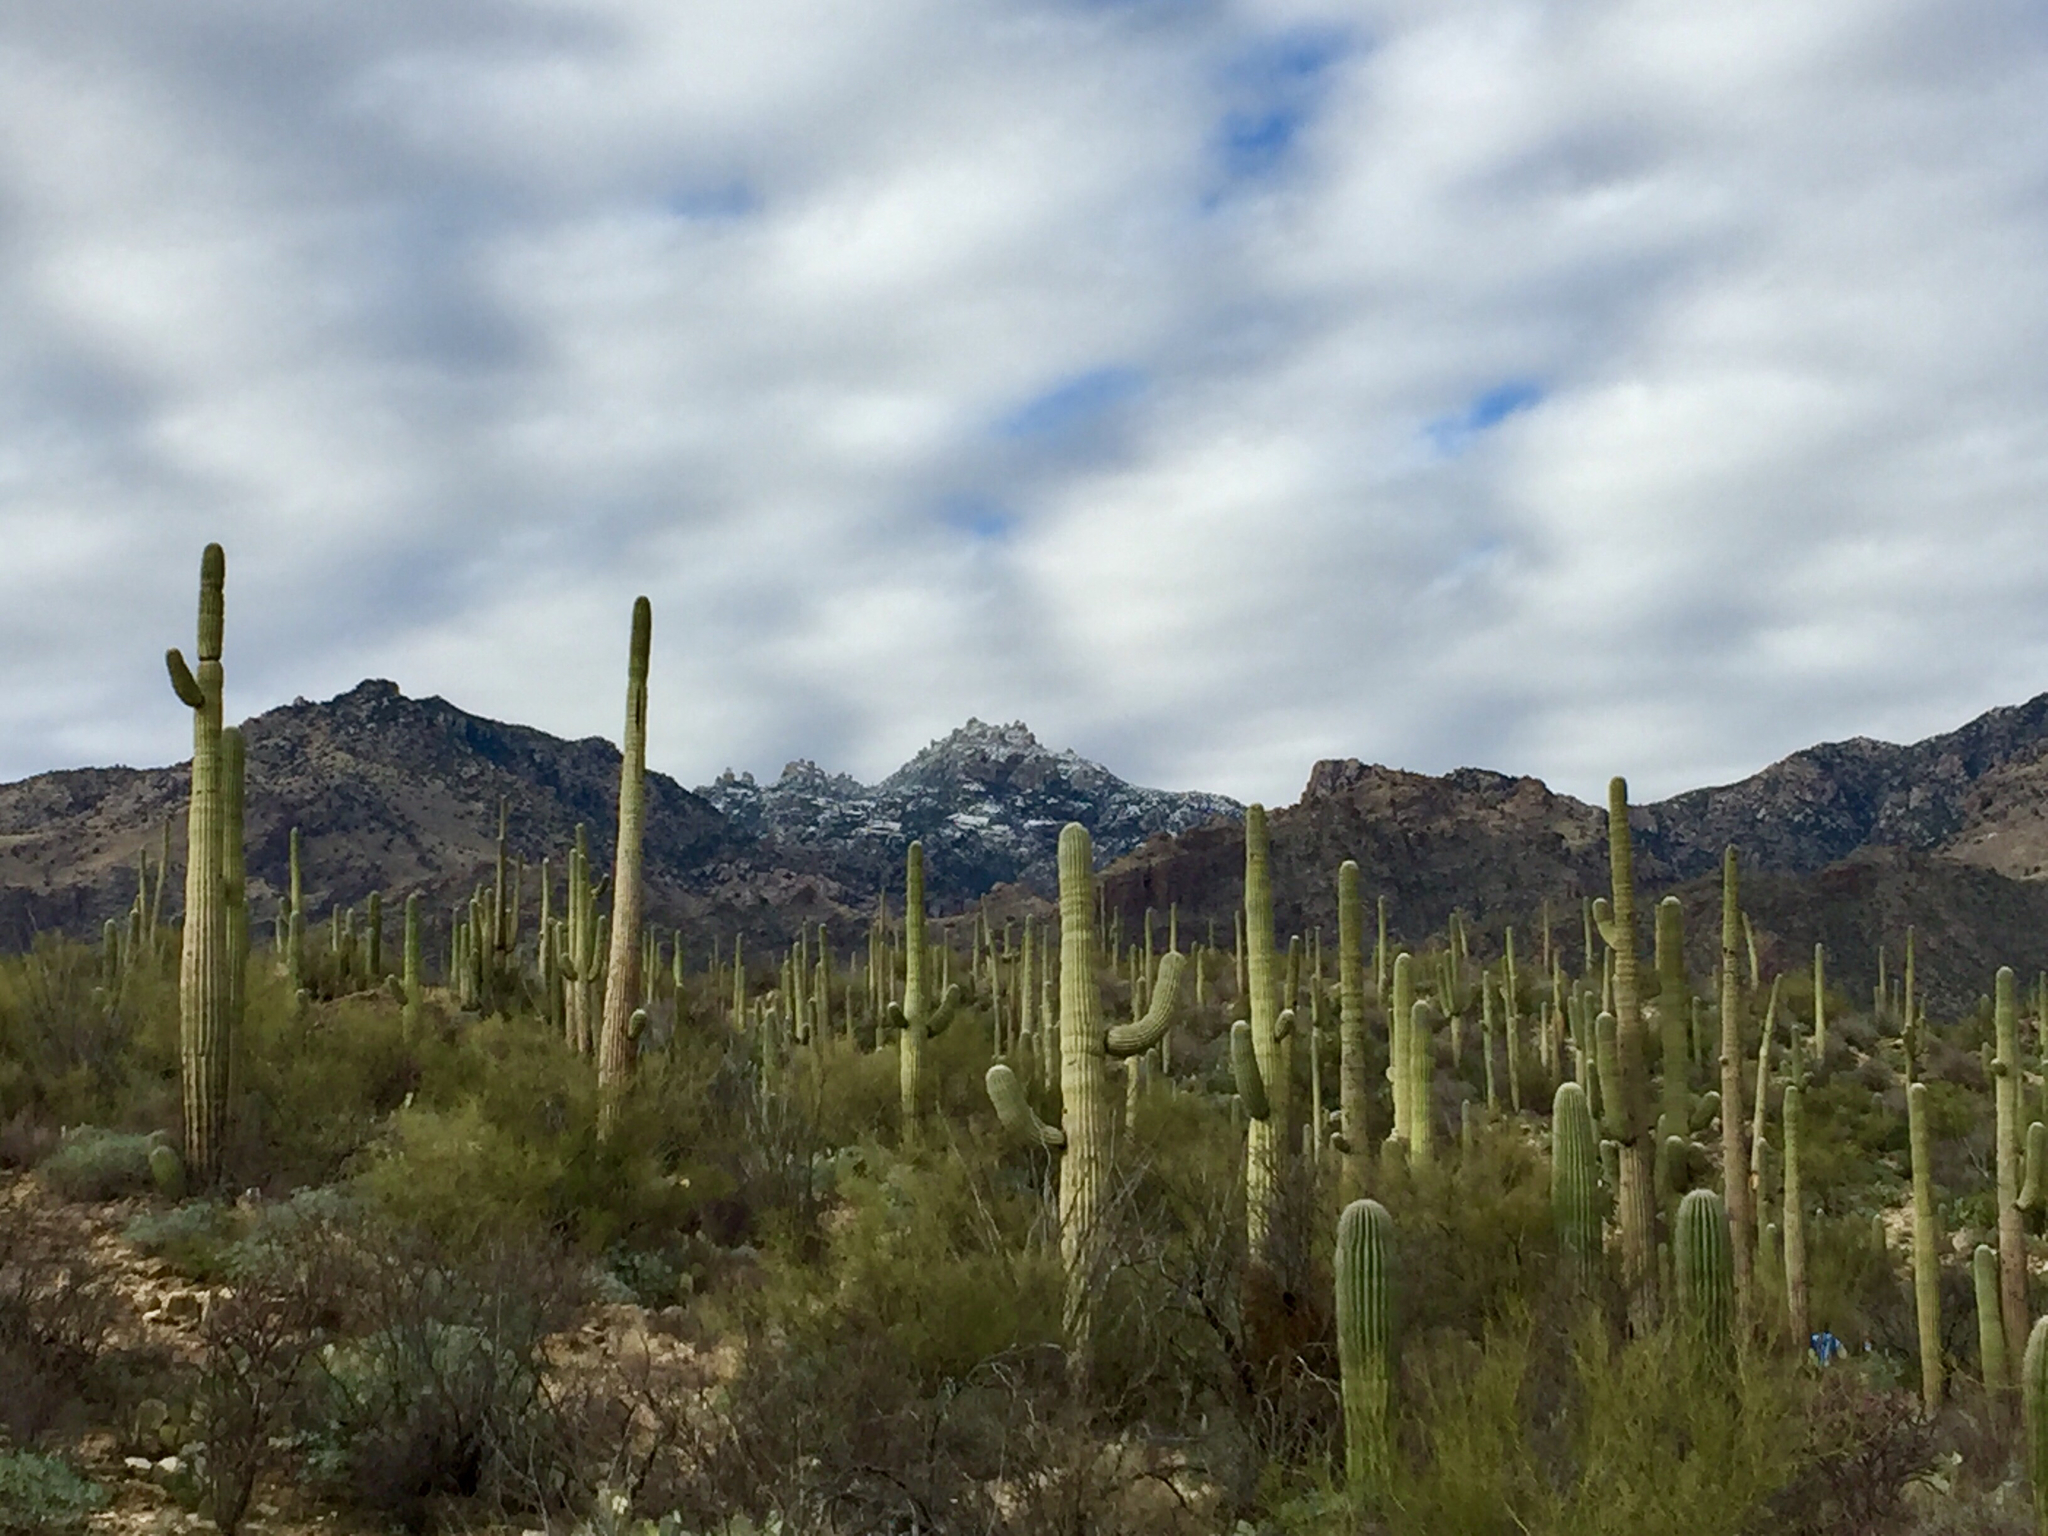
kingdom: Plantae
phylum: Tracheophyta
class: Magnoliopsida
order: Caryophyllales
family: Cactaceae
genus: Carnegiea
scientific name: Carnegiea gigantea
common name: Saguaro
